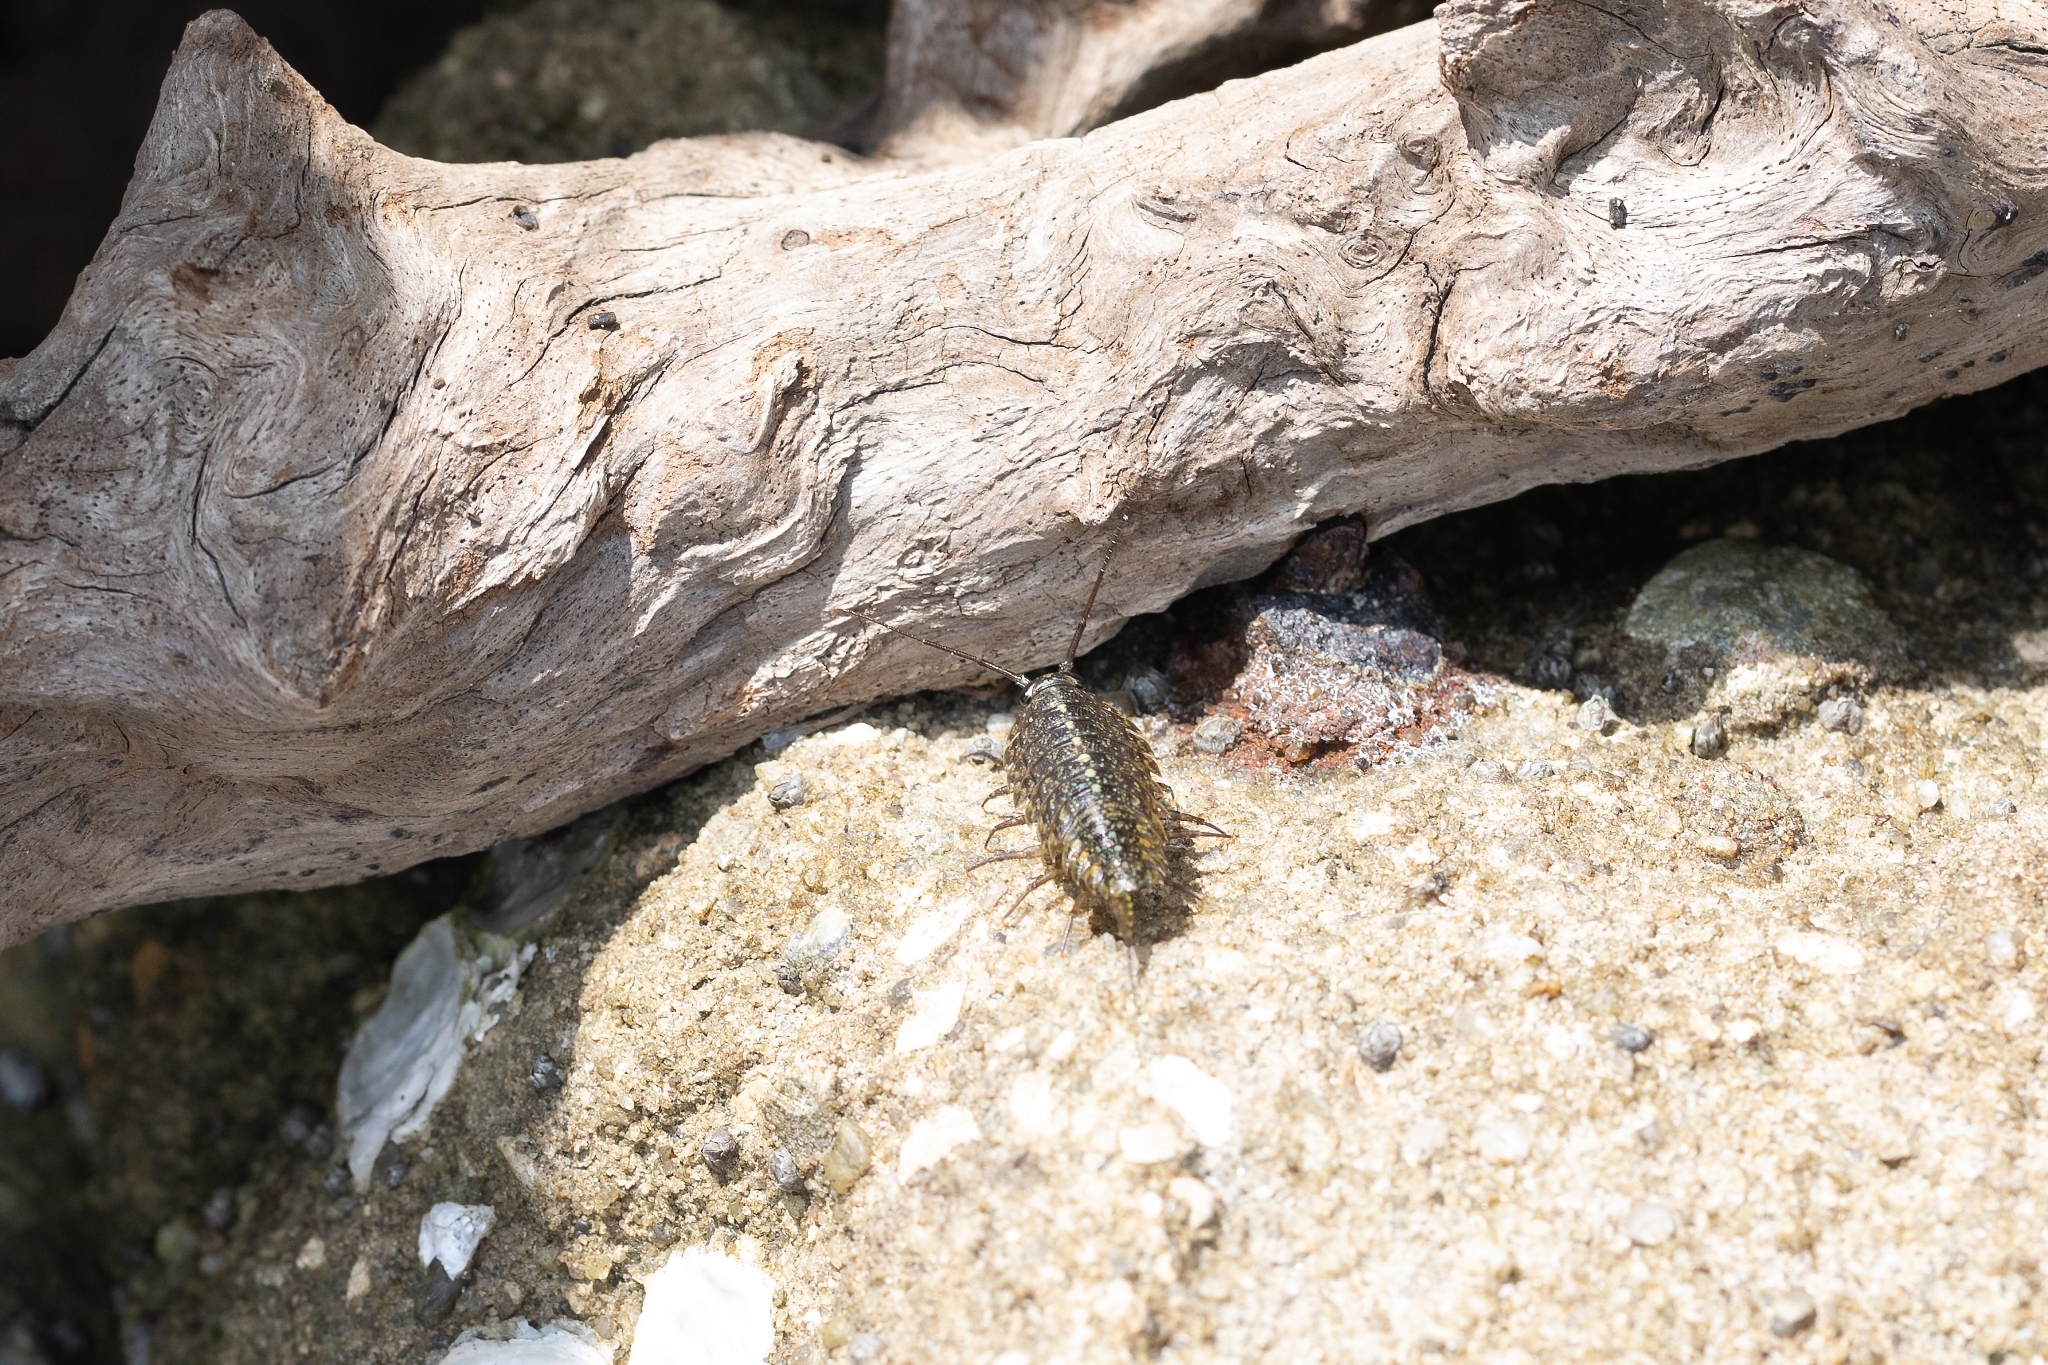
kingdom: Animalia
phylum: Arthropoda
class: Malacostraca
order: Isopoda
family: Ligiidae
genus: Ligia
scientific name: Ligia exotica
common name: Wharf roach
